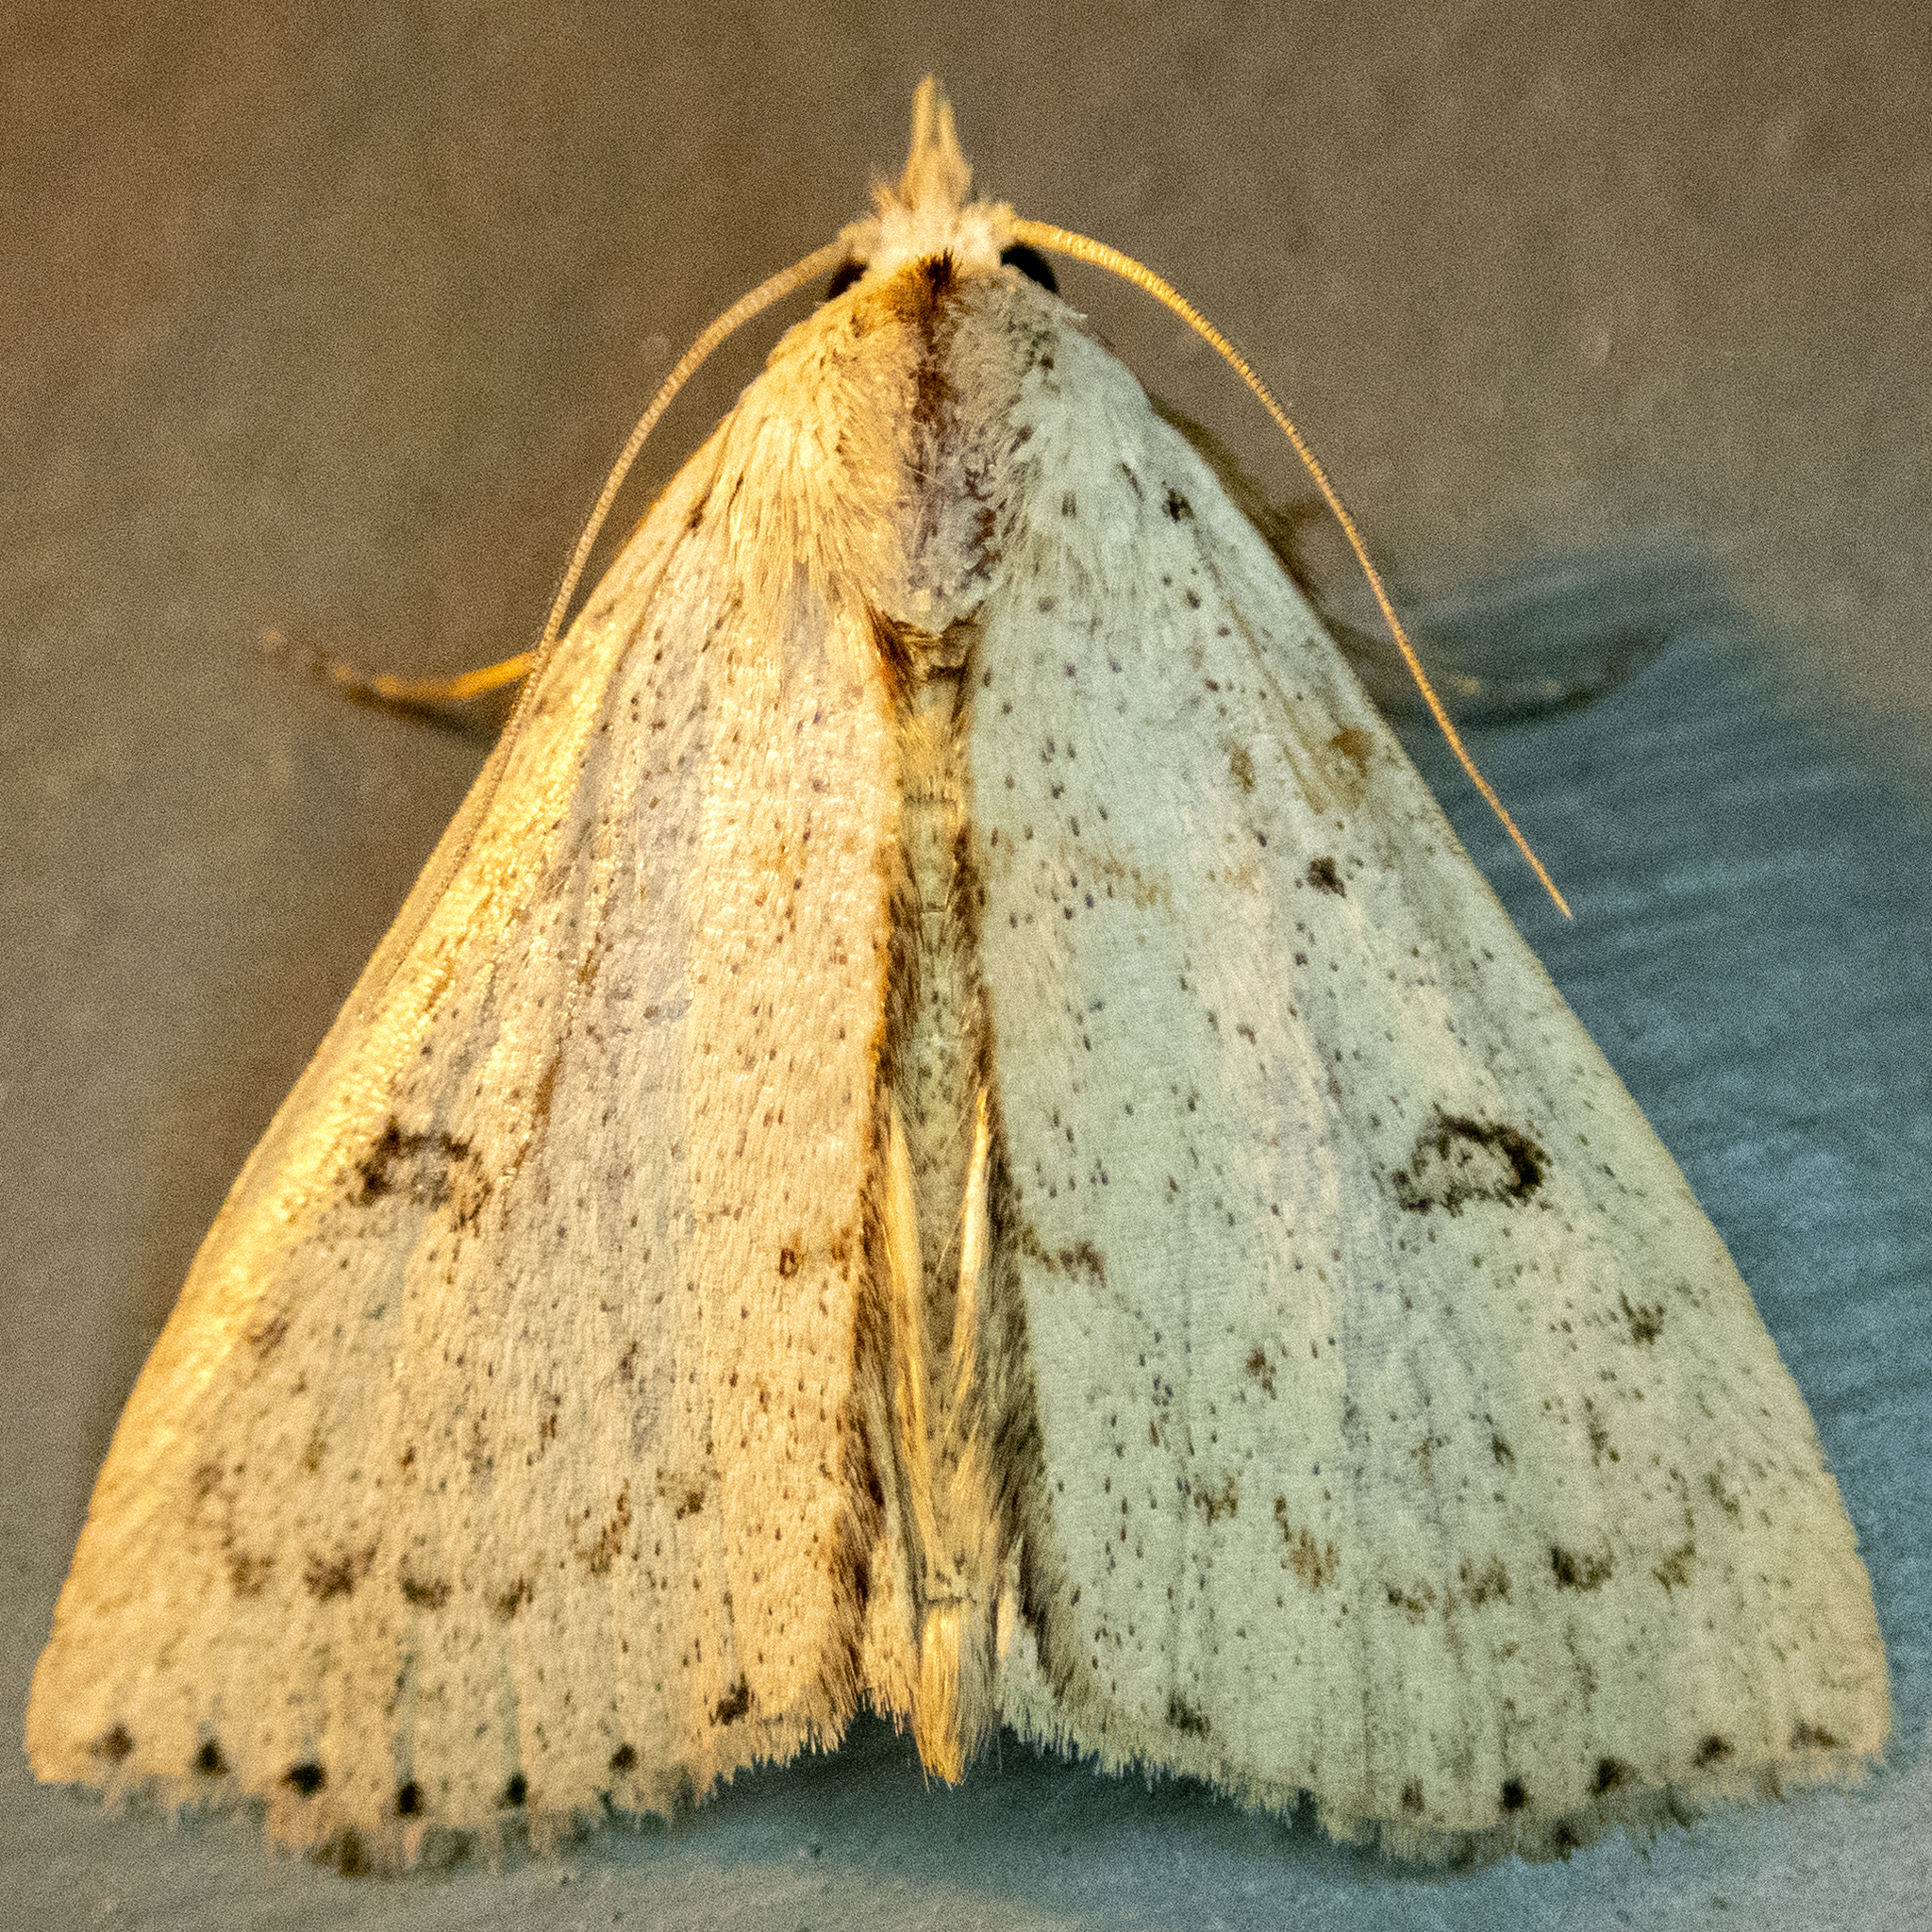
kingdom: Animalia
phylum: Arthropoda
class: Insecta
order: Lepidoptera
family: Erebidae
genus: Scolecocampa
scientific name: Scolecocampa liburna
